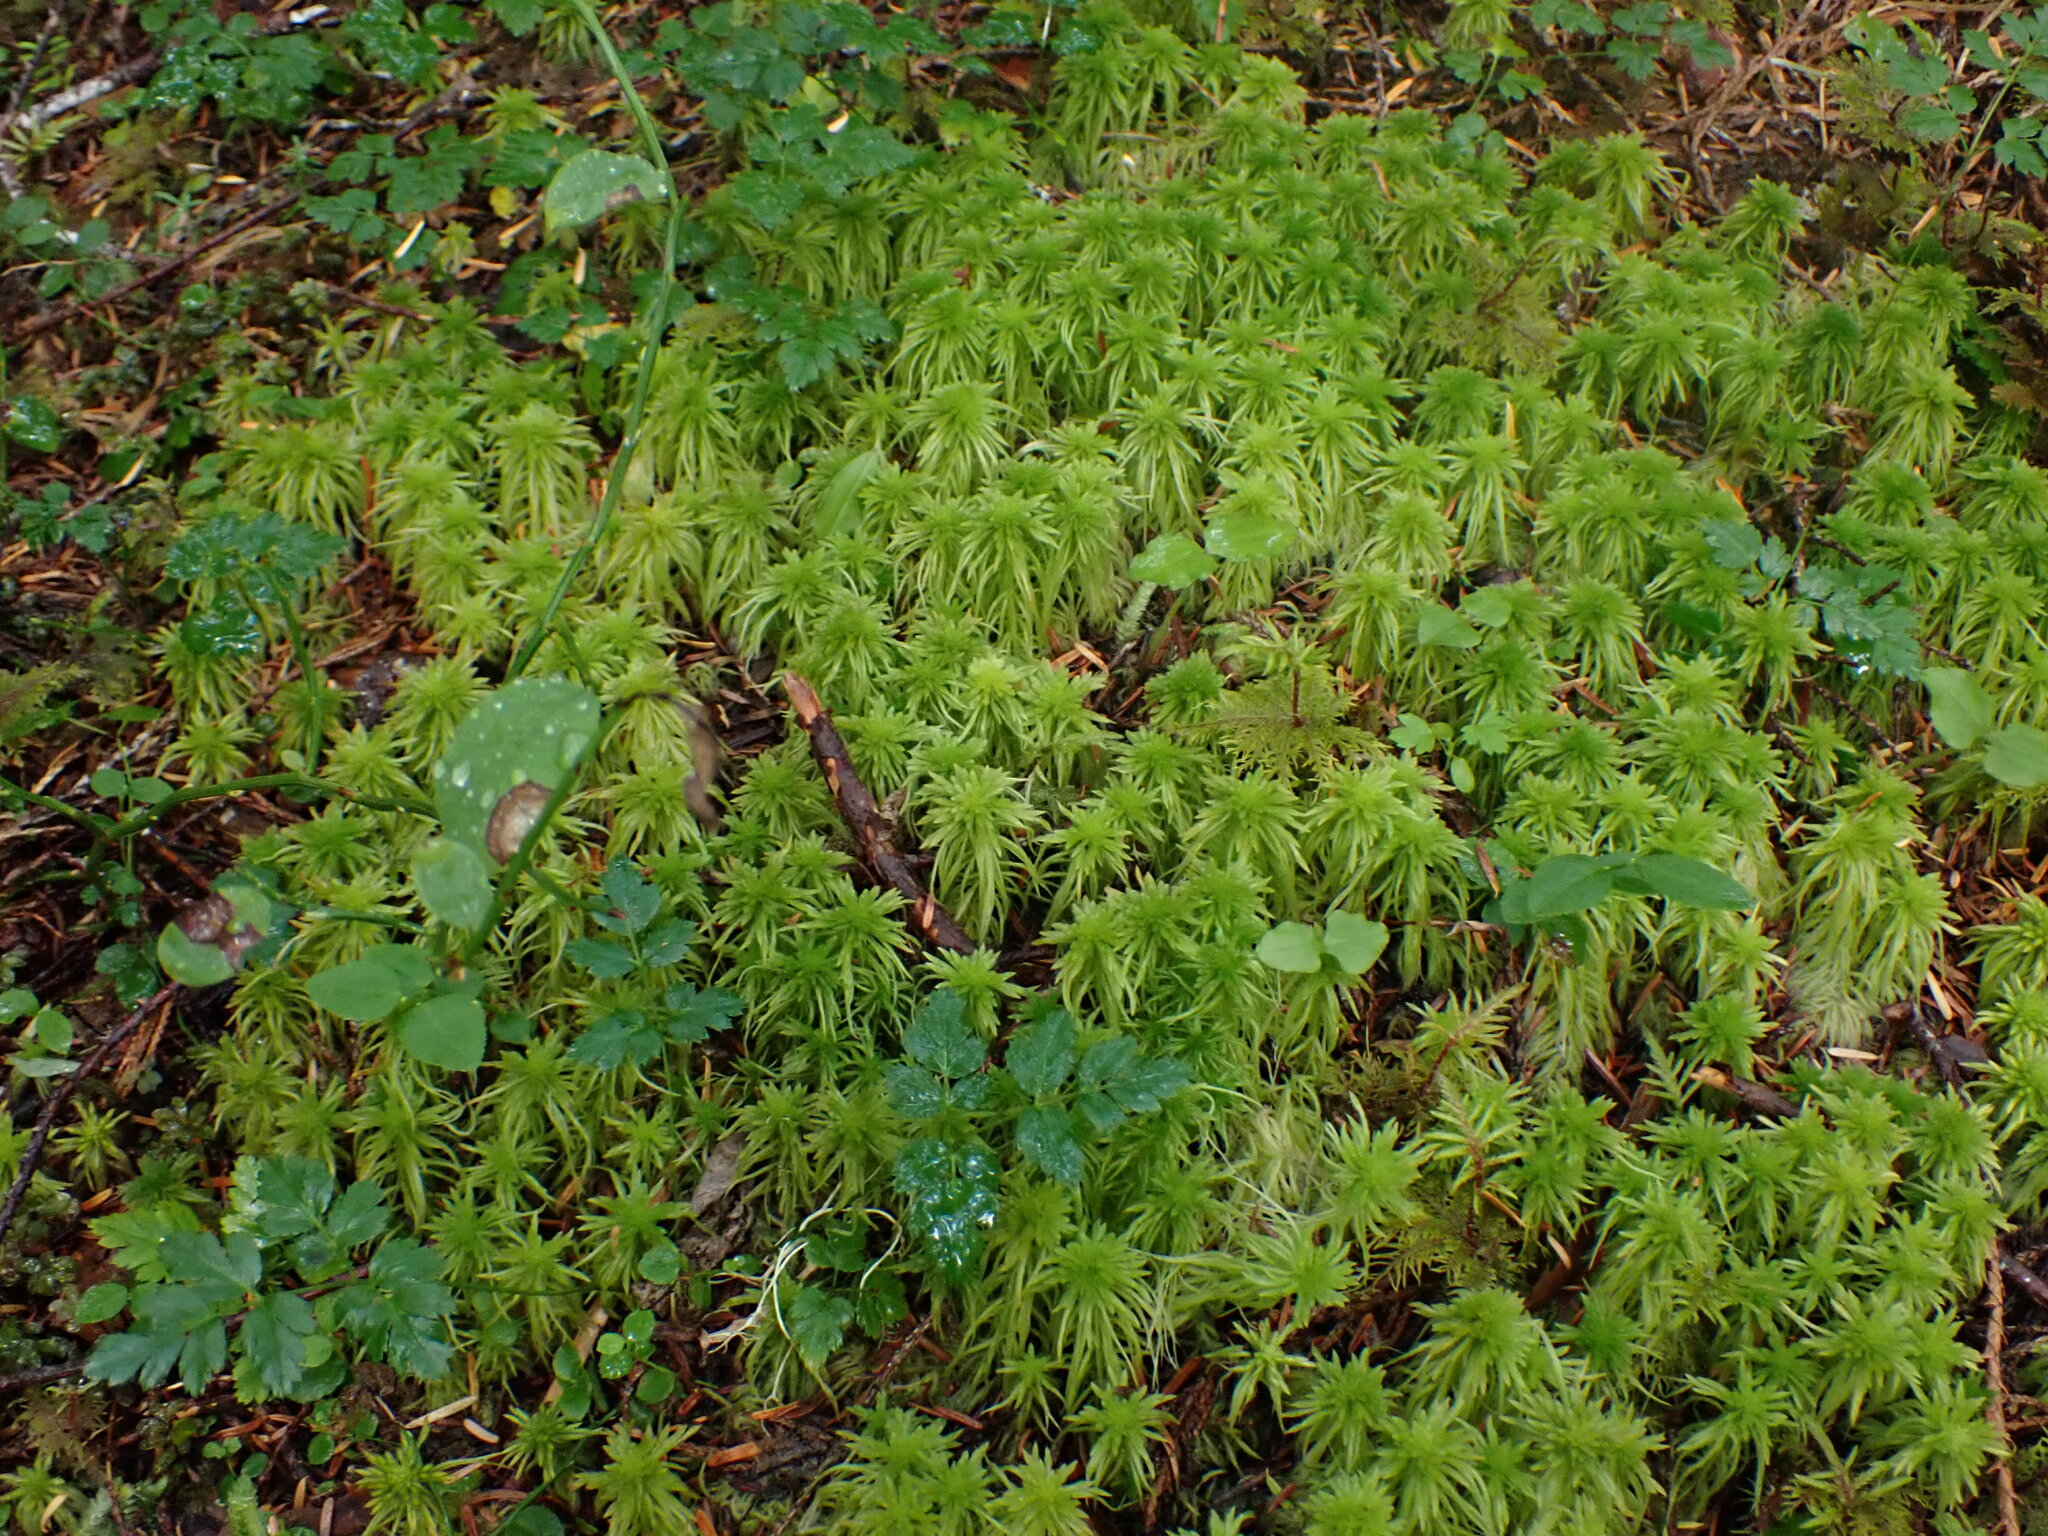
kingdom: Plantae
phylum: Bryophyta
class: Sphagnopsida
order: Sphagnales
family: Sphagnaceae
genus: Sphagnum
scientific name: Sphagnum rubiginosum
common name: Variegated peat moss
